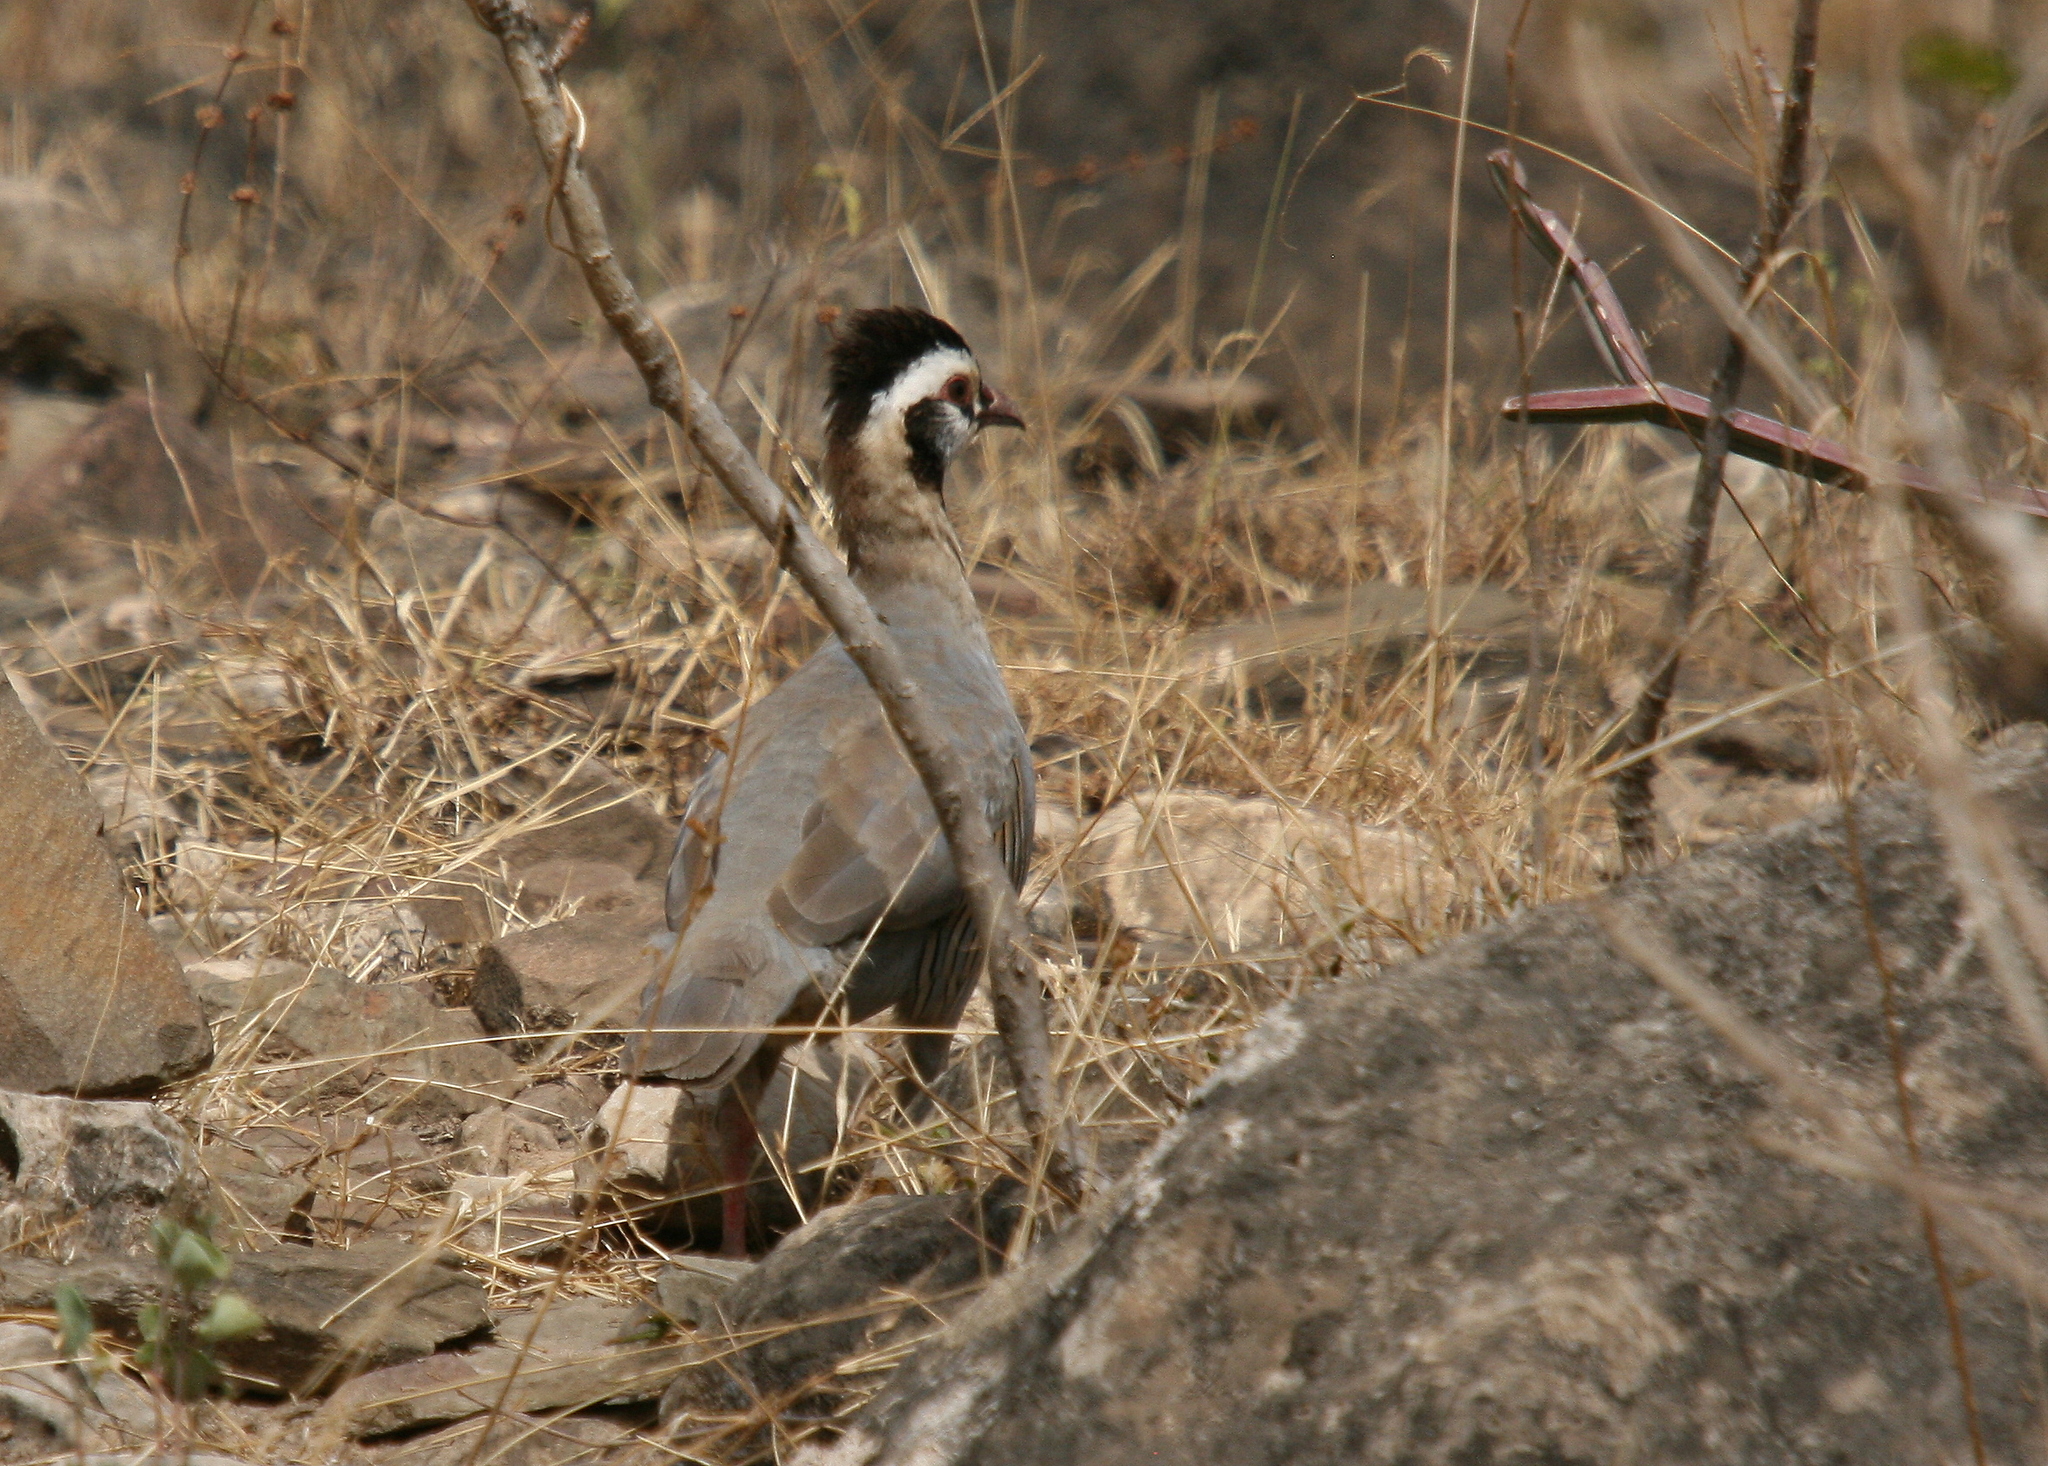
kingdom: Animalia
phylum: Chordata
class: Aves
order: Galliformes
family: Phasianidae
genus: Alectoris
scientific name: Alectoris melanocephala
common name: Arabian partridge
